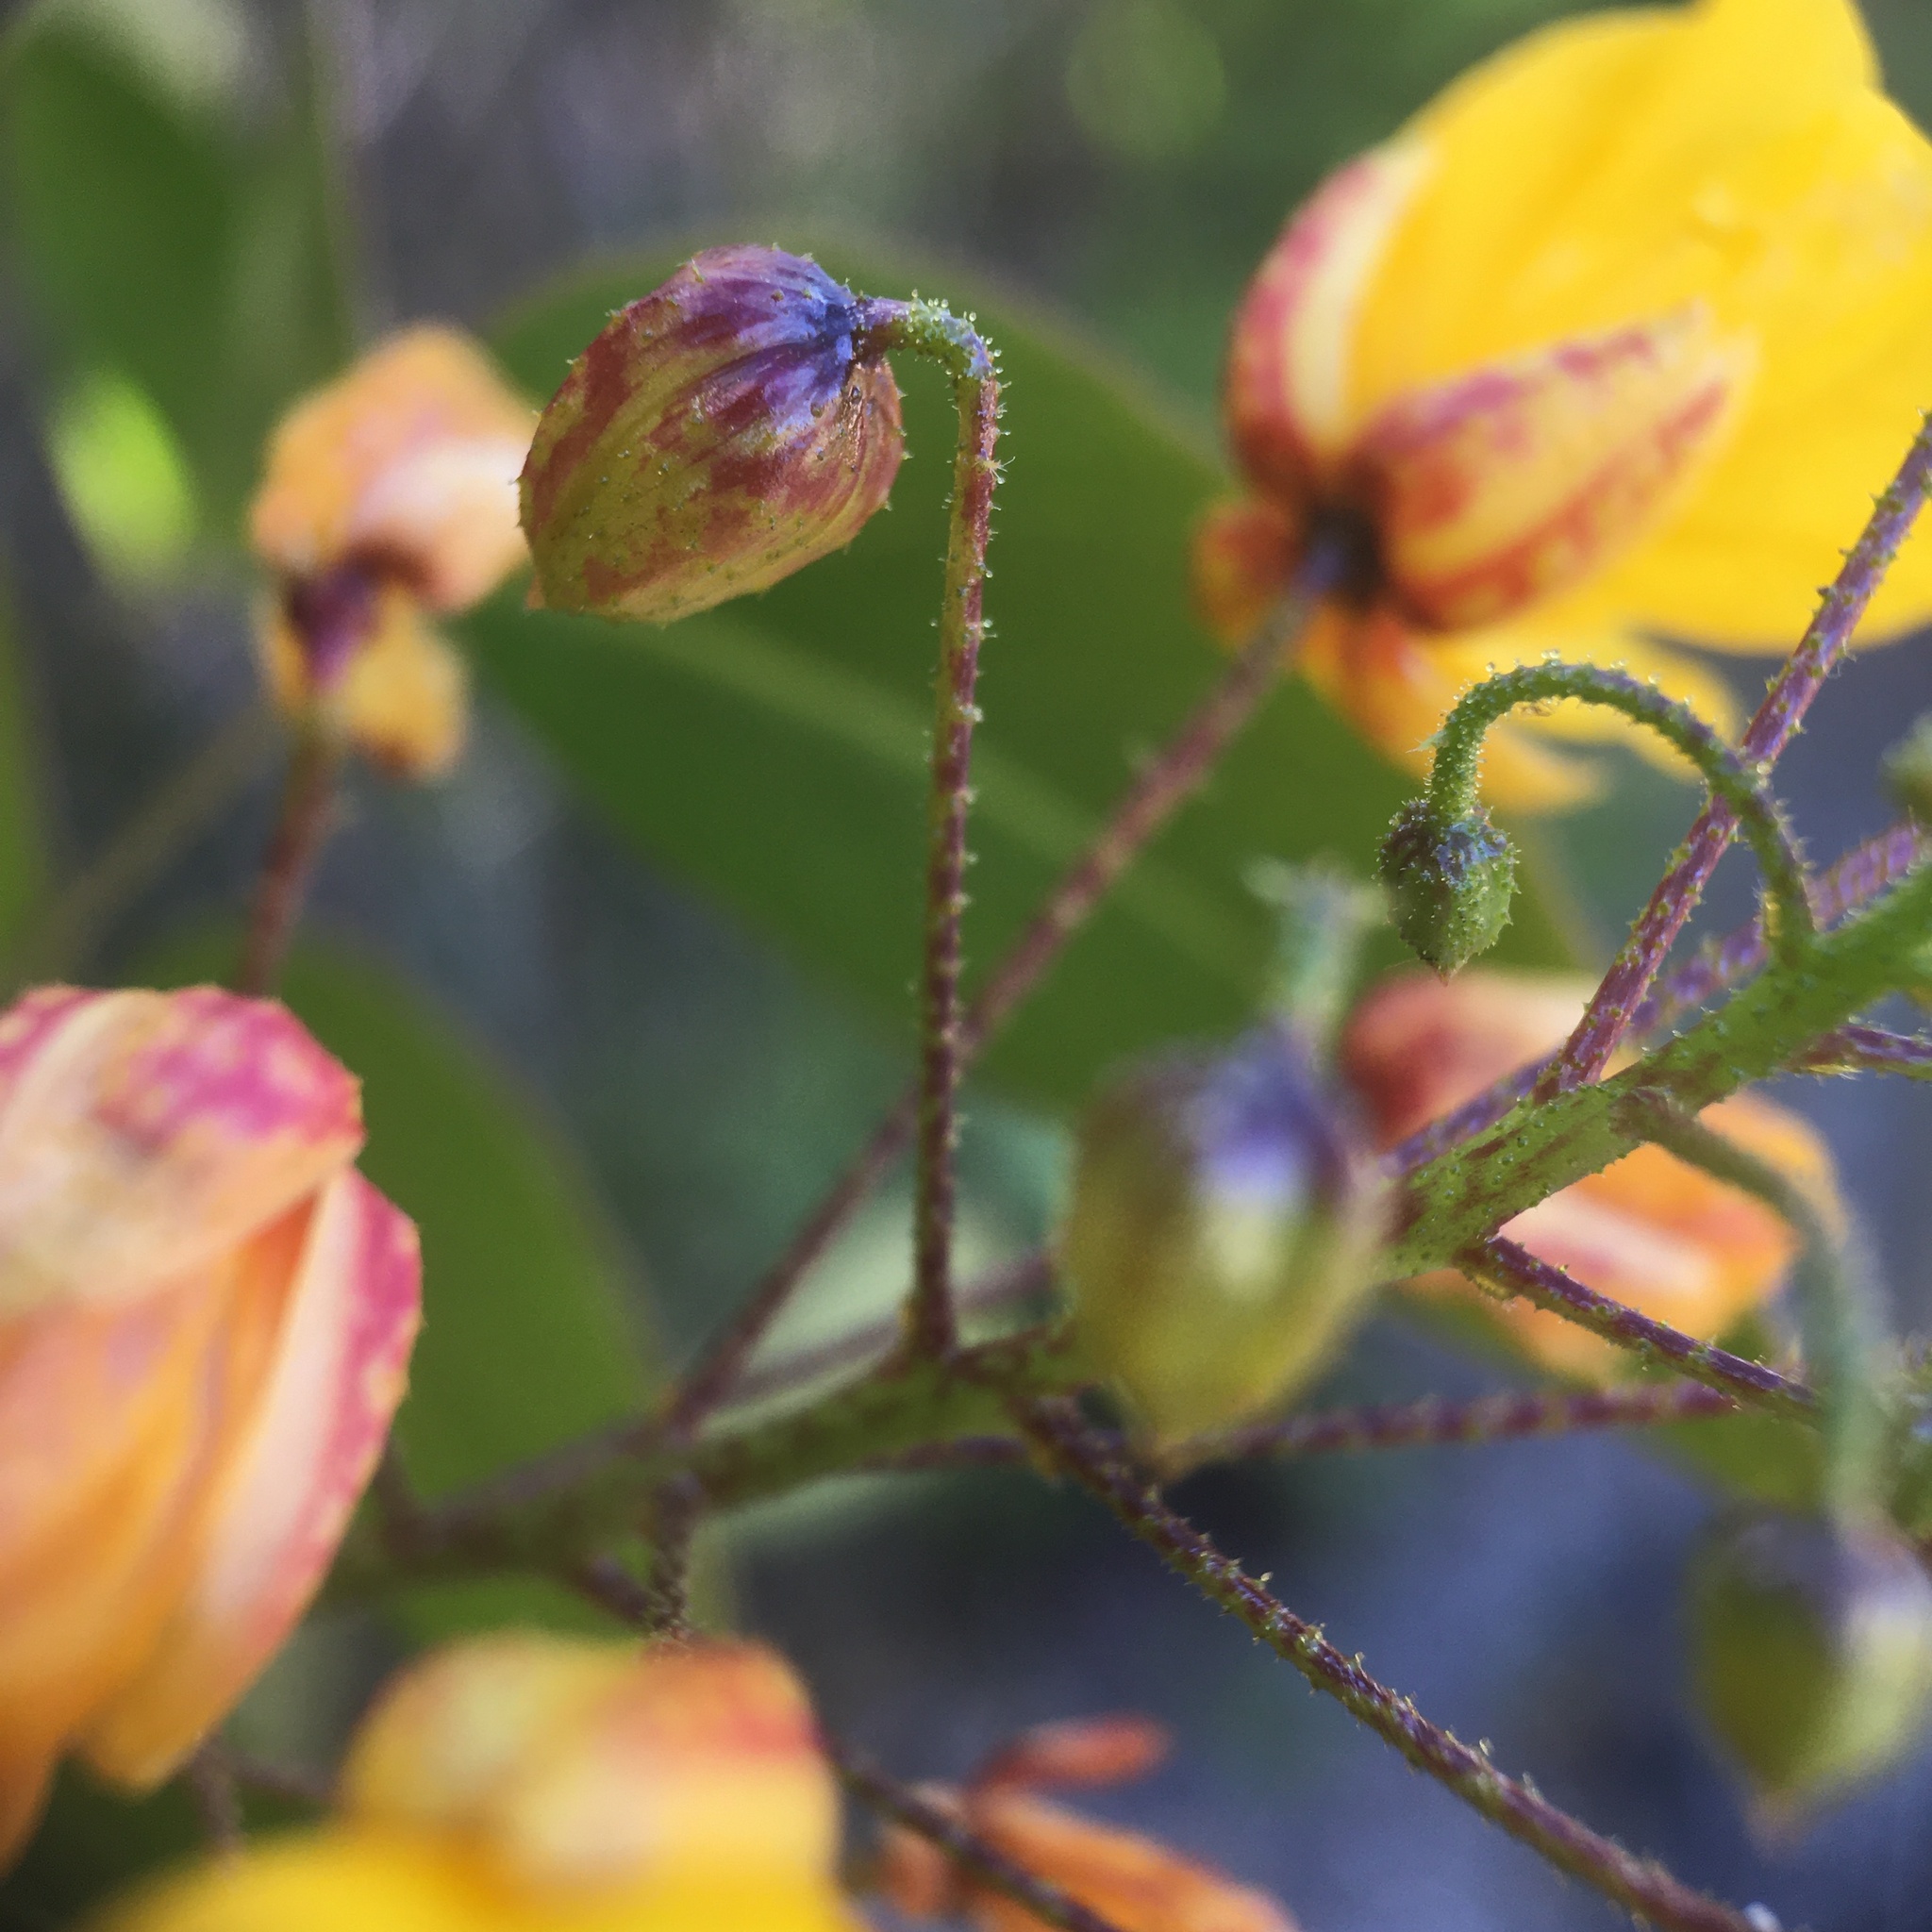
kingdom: Plantae
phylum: Tracheophyta
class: Magnoliopsida
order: Fabales
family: Fabaceae
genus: Chamaecrista
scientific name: Chamaecrista hatschbachii
